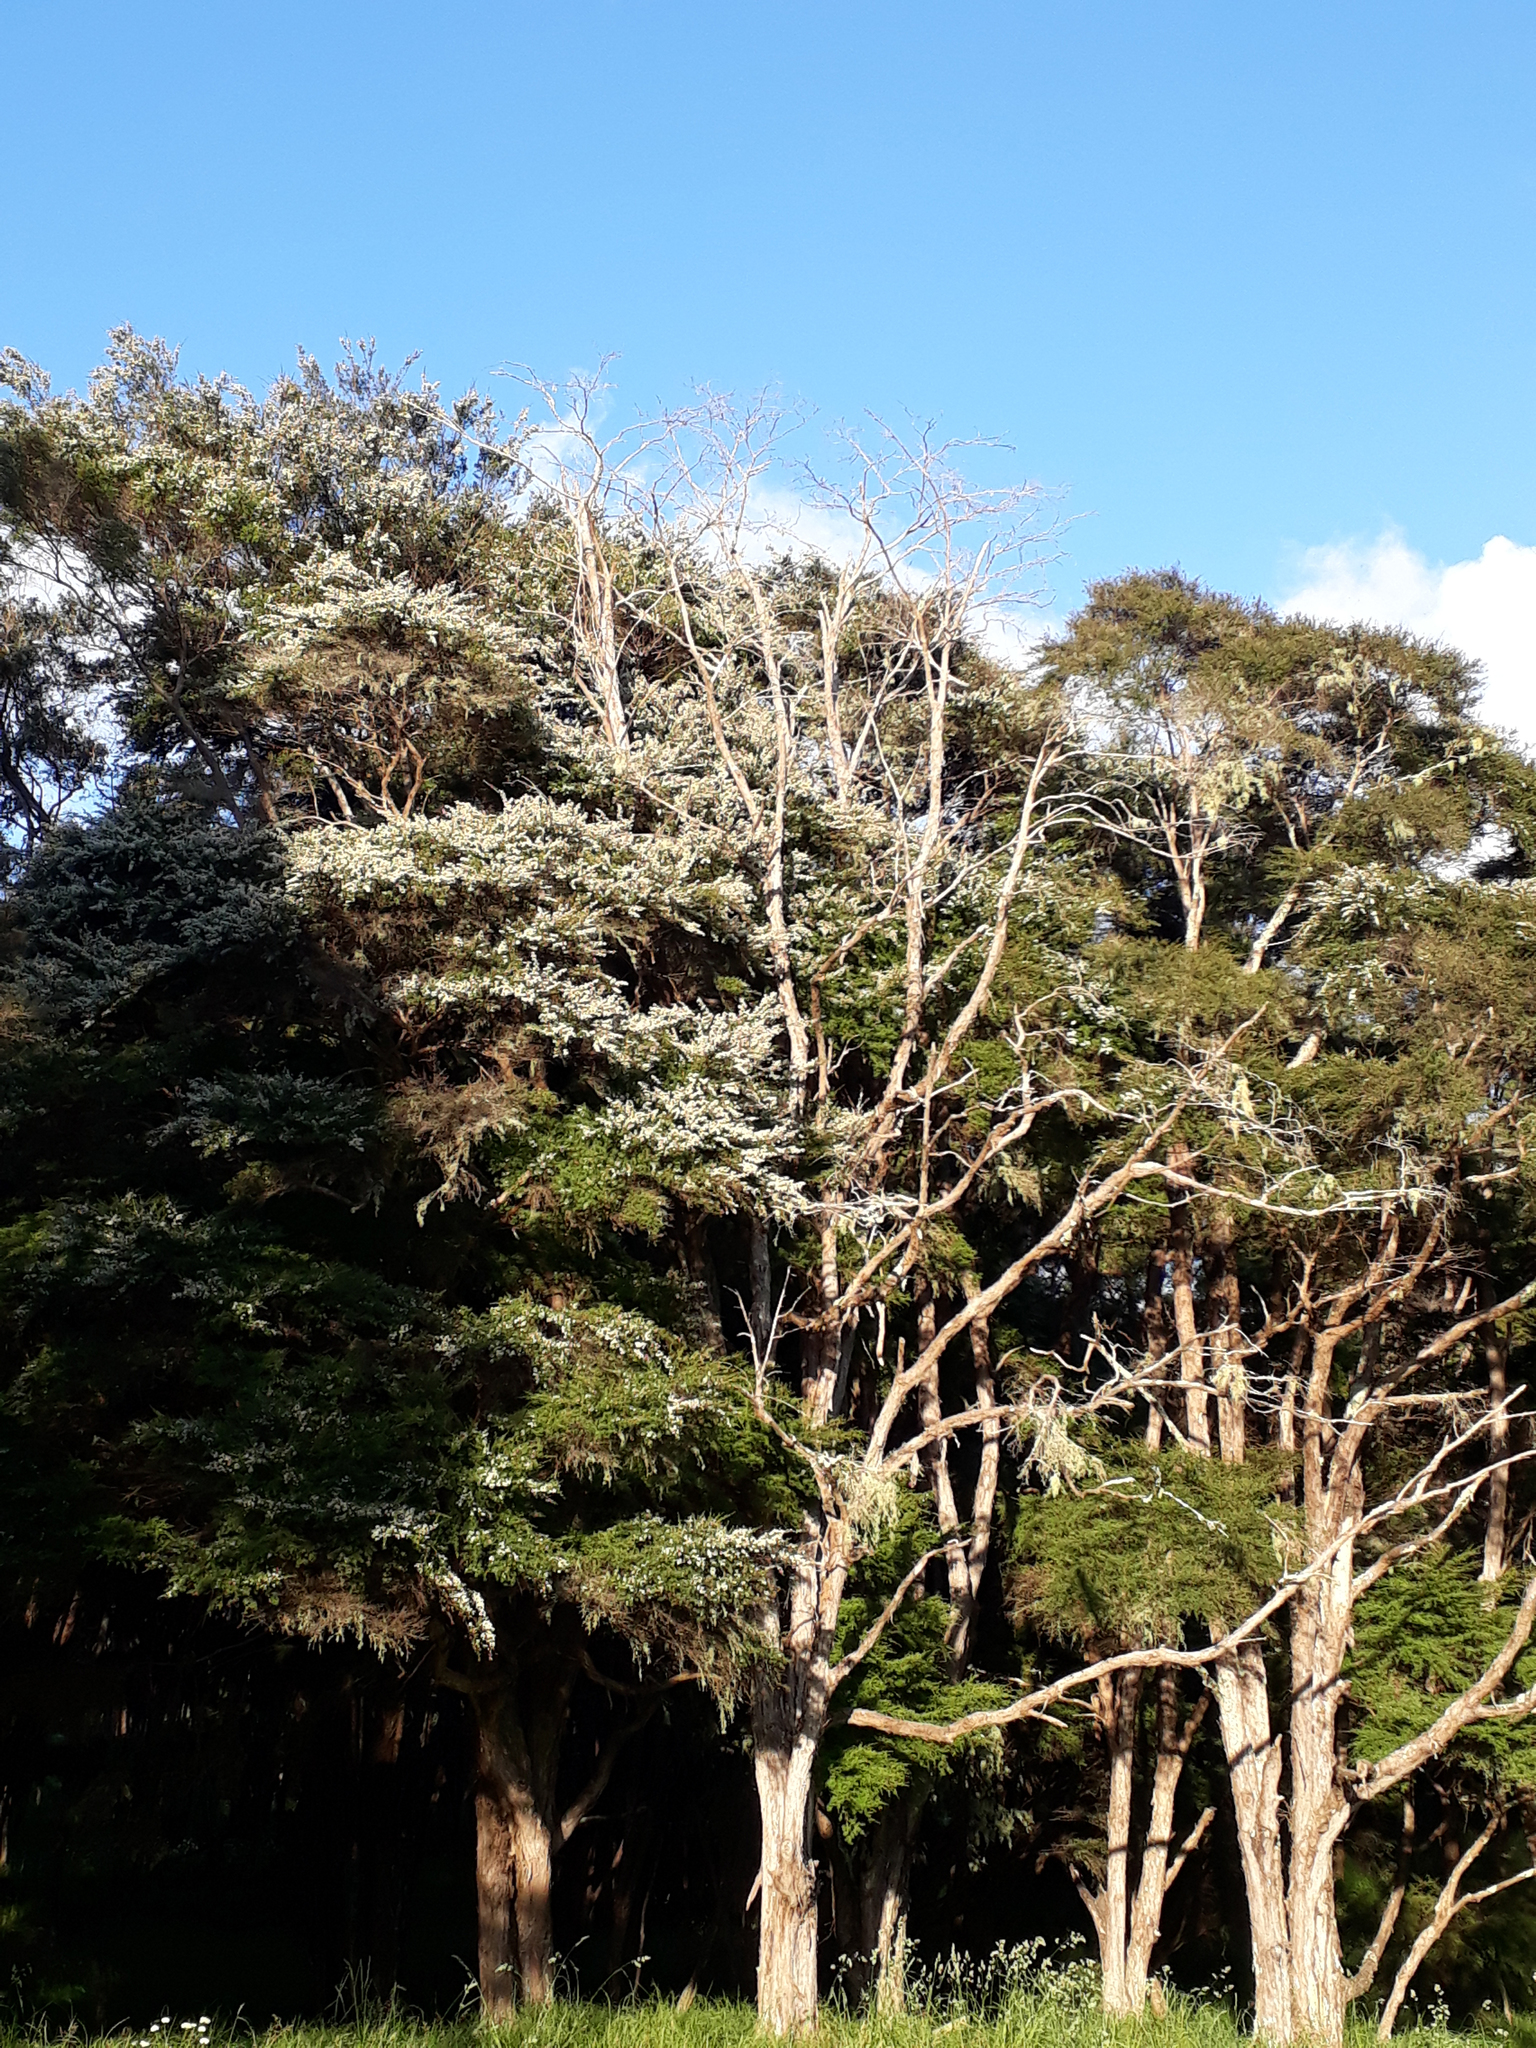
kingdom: Plantae
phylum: Tracheophyta
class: Magnoliopsida
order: Myrtales
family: Myrtaceae
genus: Kunzea
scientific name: Kunzea robusta
